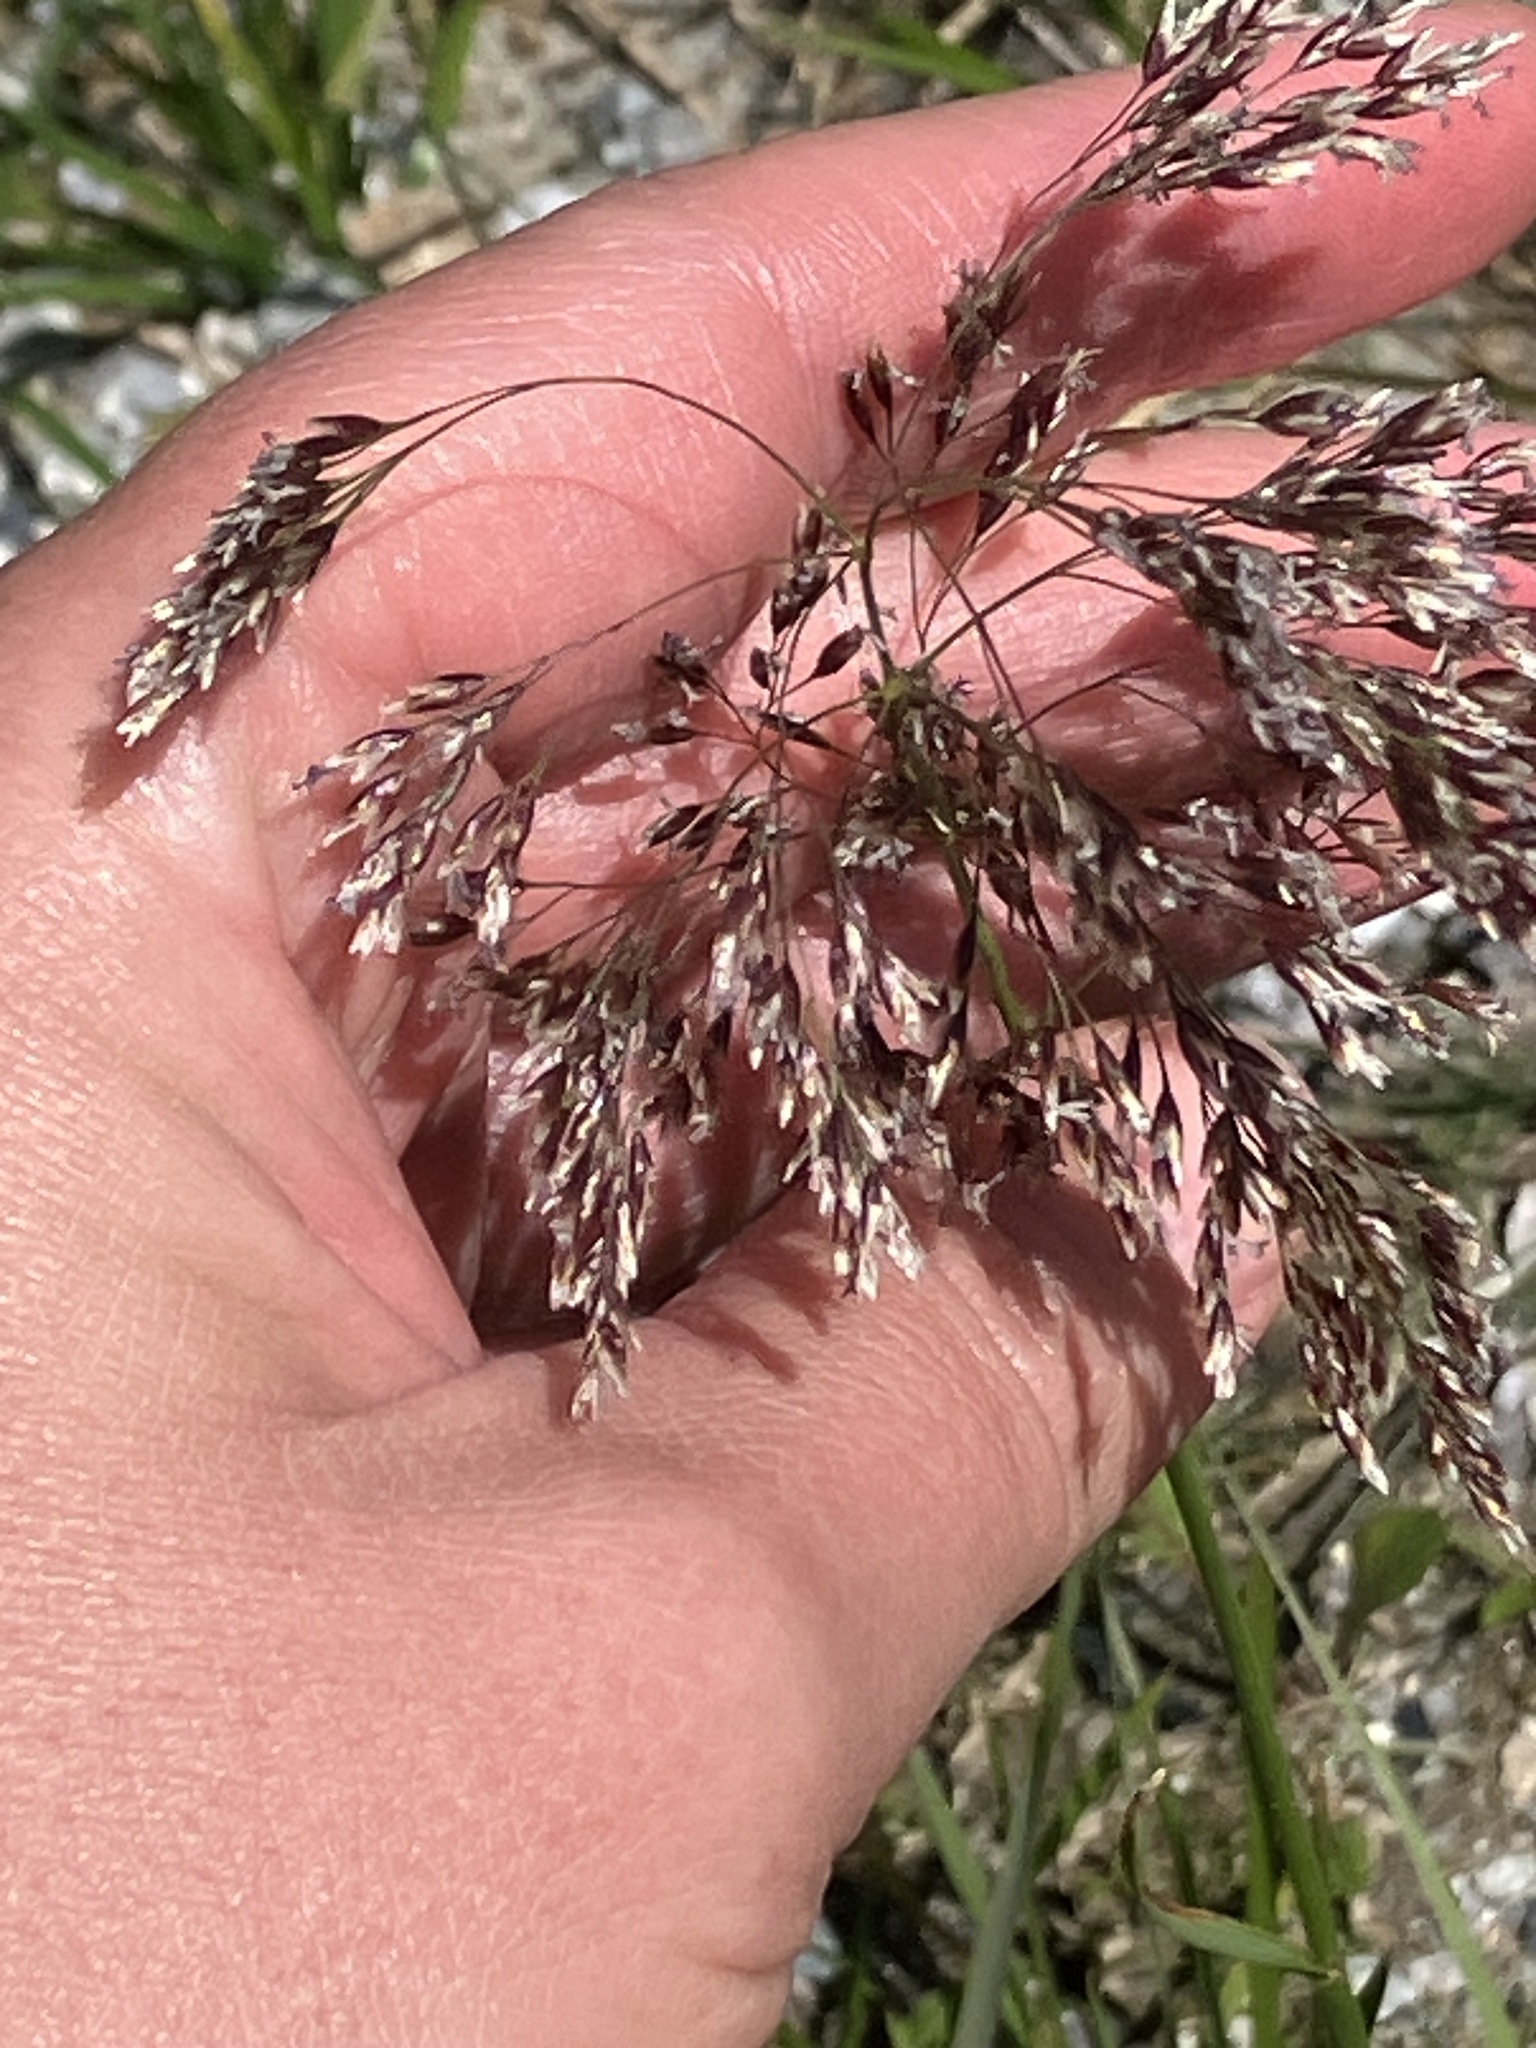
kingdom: Plantae
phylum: Tracheophyta
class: Liliopsida
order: Poales
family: Poaceae
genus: Deschampsia
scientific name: Deschampsia cespitosa
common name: Tufted hair-grass
